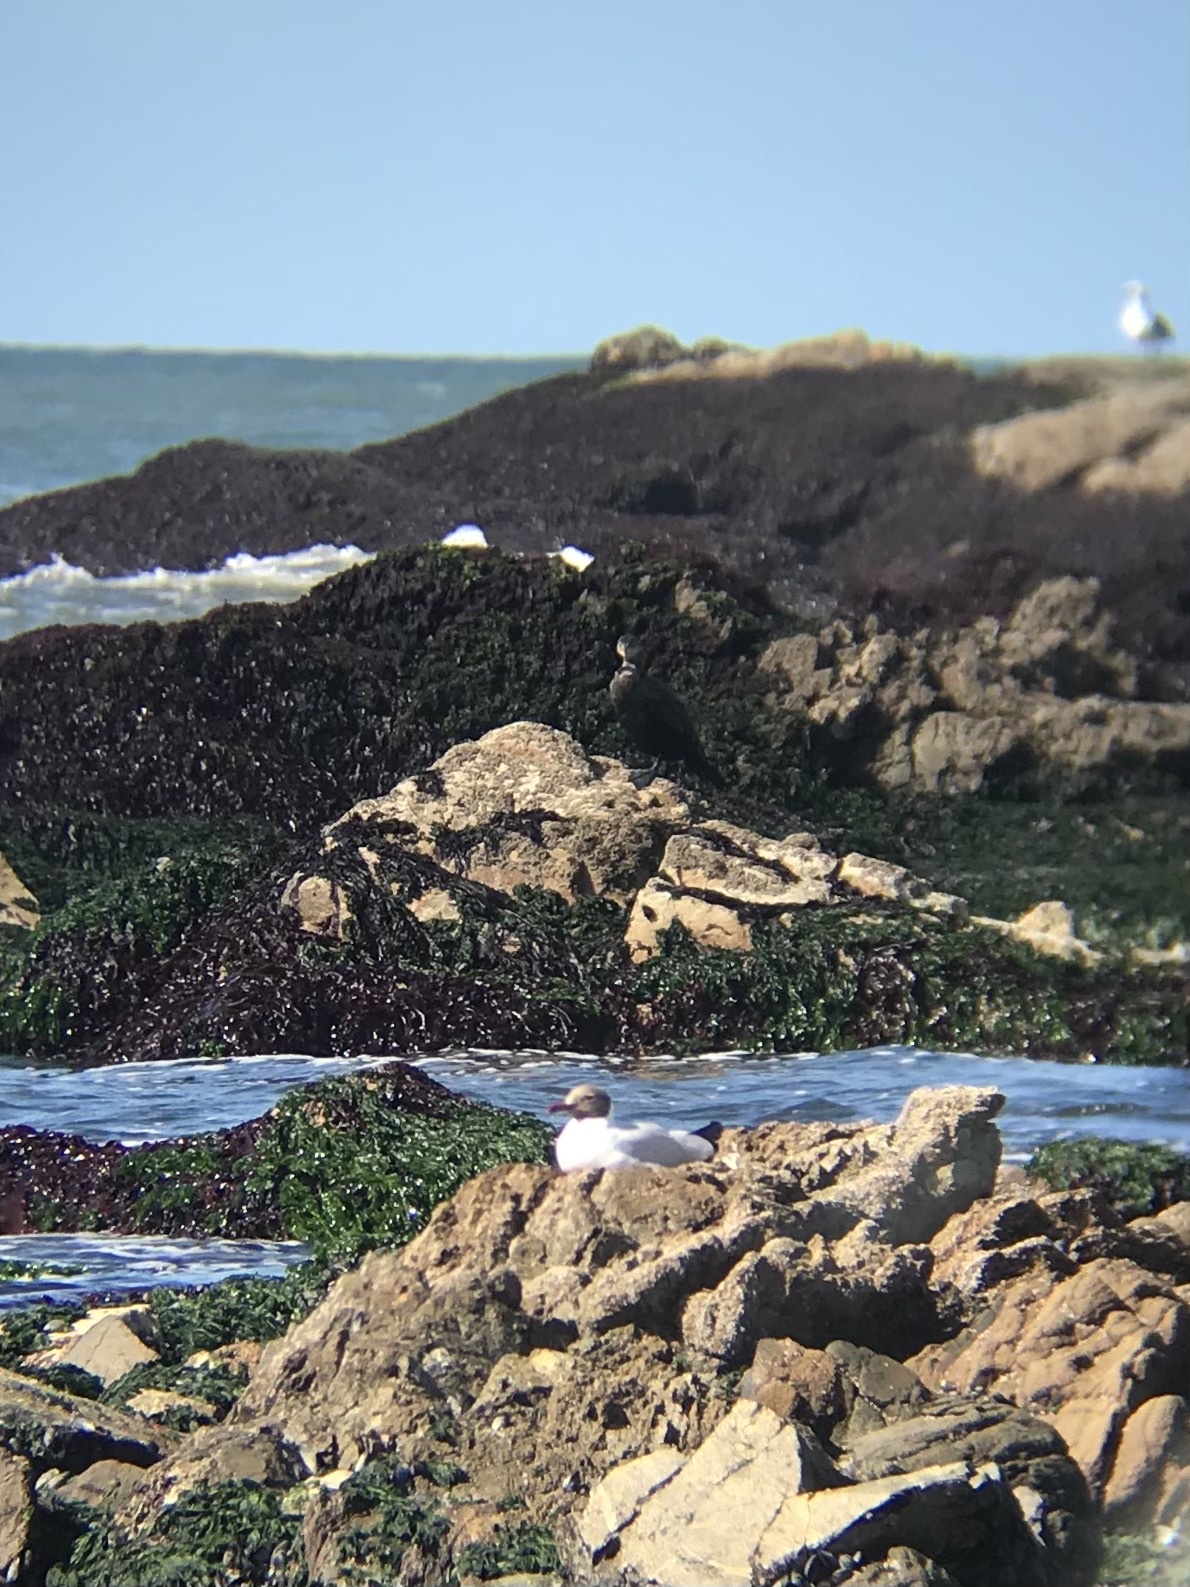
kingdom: Animalia
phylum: Chordata
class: Aves
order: Charadriiformes
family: Laridae
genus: Chroicocephalus
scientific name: Chroicocephalus maculipennis
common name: Brown-hooded gull
